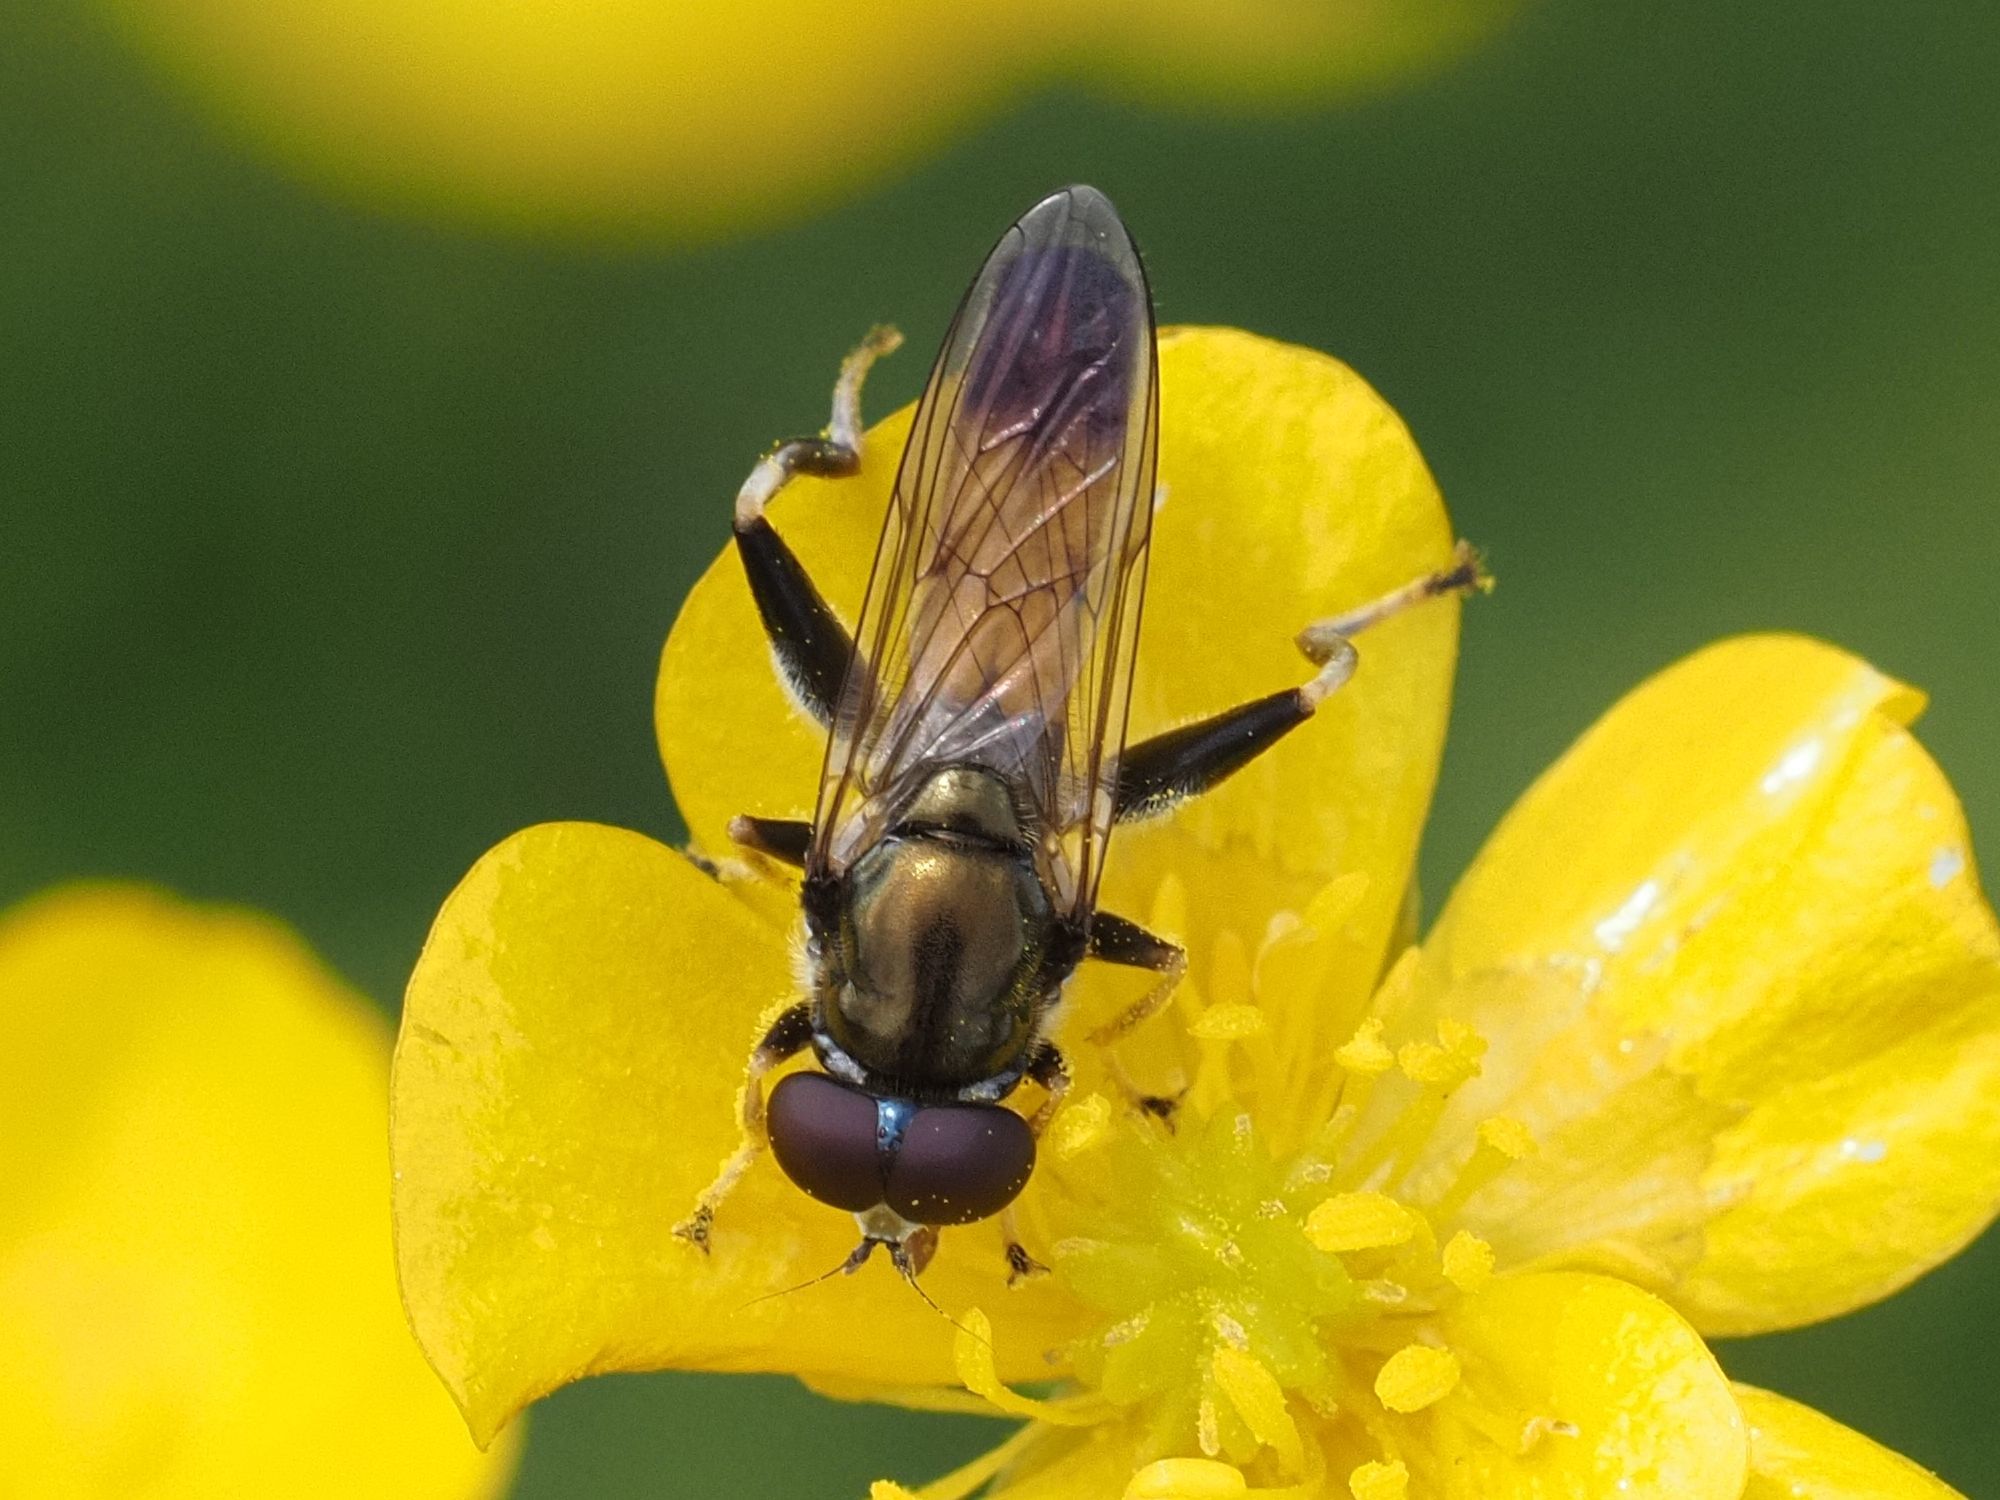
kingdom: Animalia
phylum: Arthropoda
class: Insecta
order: Diptera
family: Syrphidae
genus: Xylota
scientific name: Xylota segnis
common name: Brown-toed forest fly
